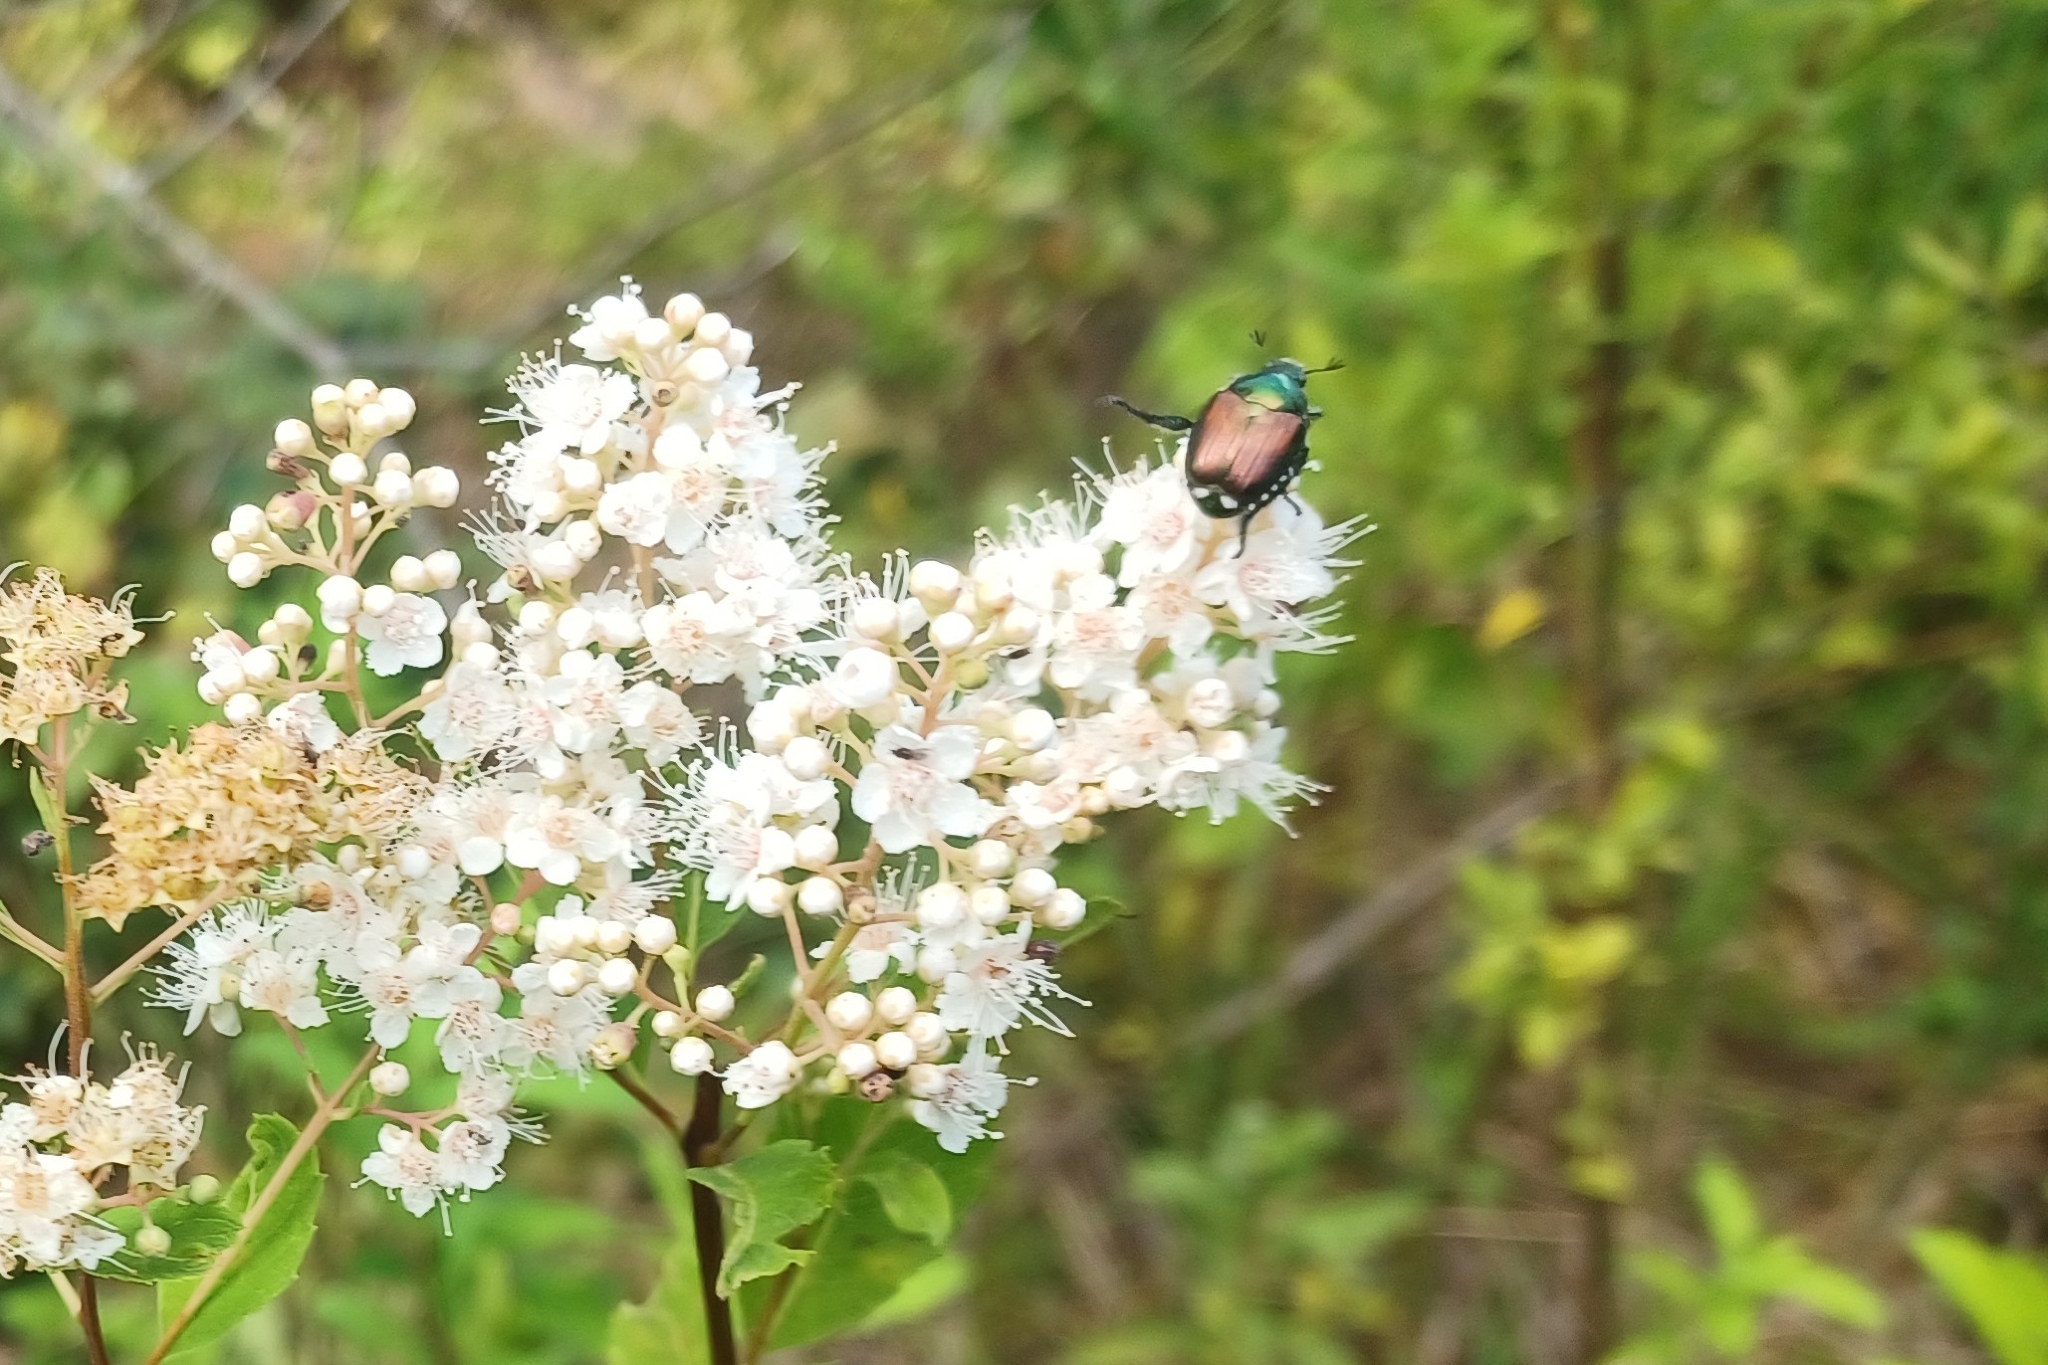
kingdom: Animalia
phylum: Arthropoda
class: Insecta
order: Coleoptera
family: Scarabaeidae
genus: Popillia
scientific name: Popillia japonica
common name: Japanese beetle
